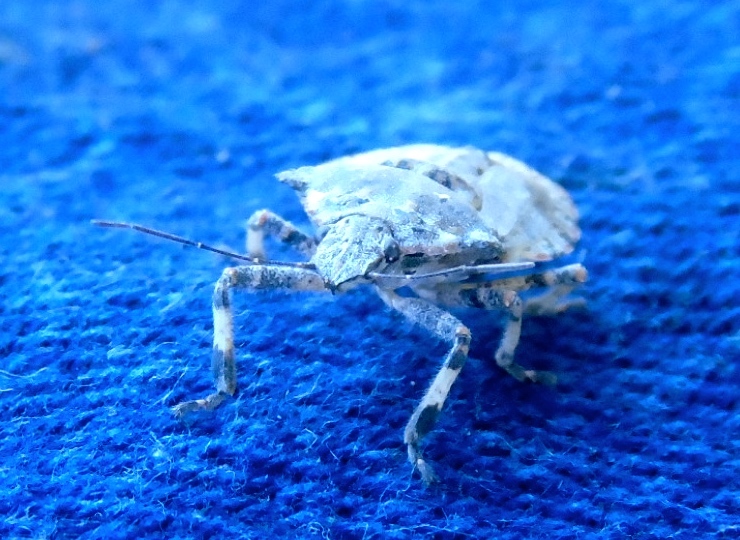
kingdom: Animalia
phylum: Arthropoda
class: Insecta
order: Hemiptera
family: Pentatomidae
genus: Brochymena
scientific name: Brochymena
